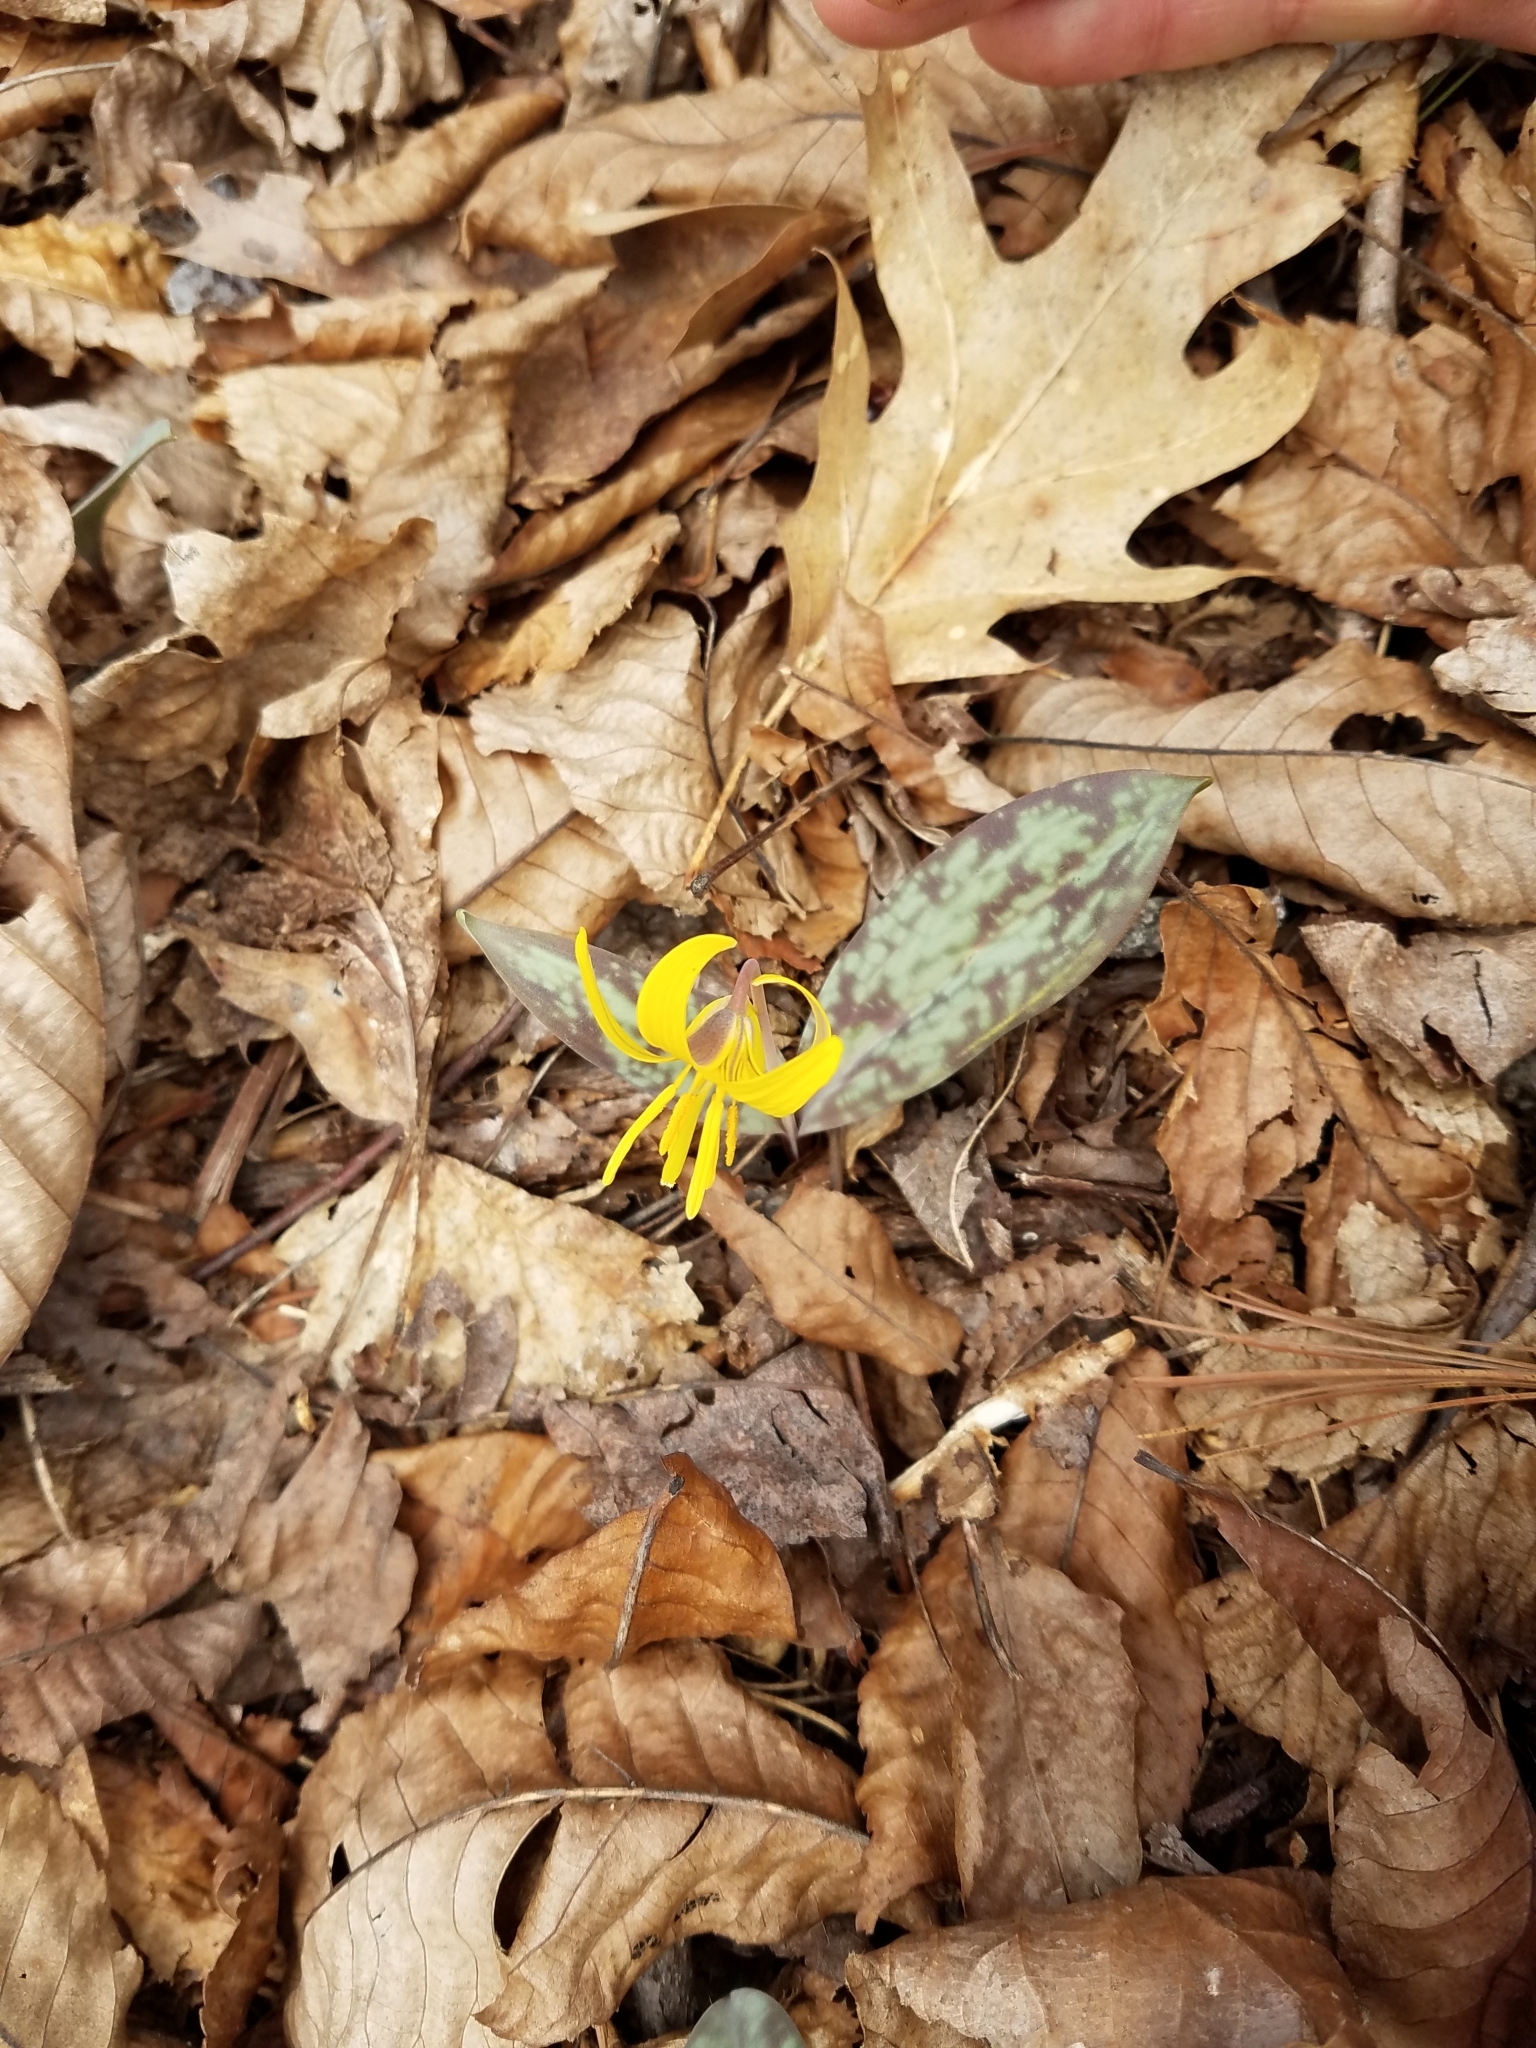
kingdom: Plantae
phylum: Tracheophyta
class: Liliopsida
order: Liliales
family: Liliaceae
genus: Erythronium
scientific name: Erythronium americanum
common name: Yellow adder's-tongue
